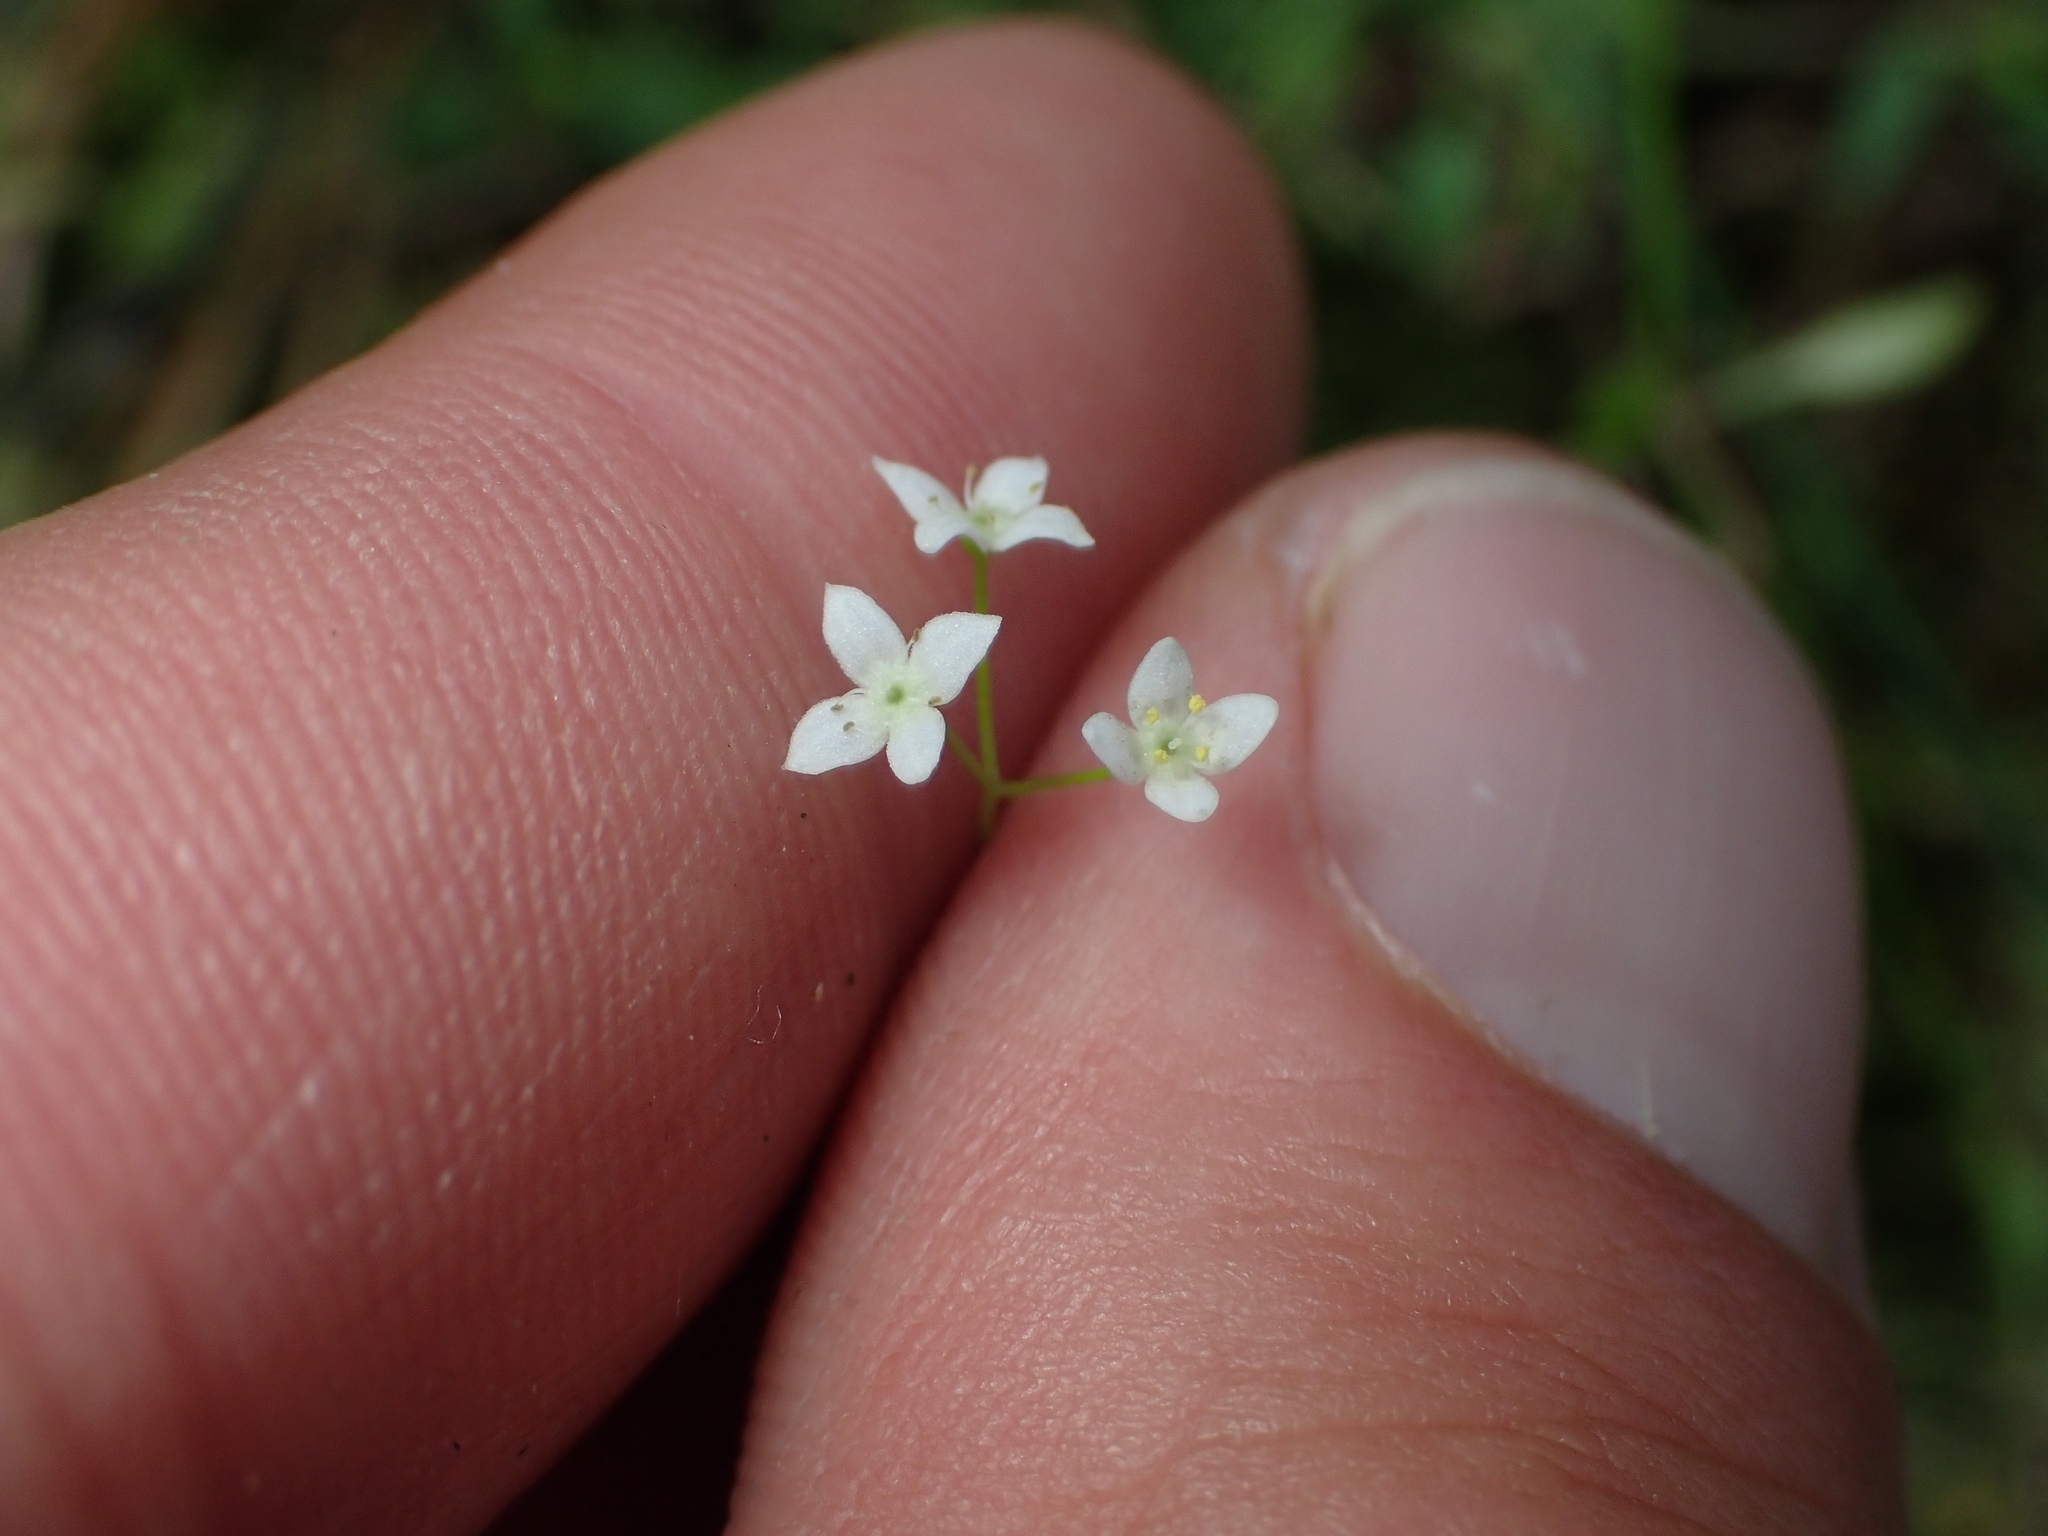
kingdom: Plantae
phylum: Tracheophyta
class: Magnoliopsida
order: Gentianales
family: Rubiaceae
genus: Galium
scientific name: Galium propinquum
